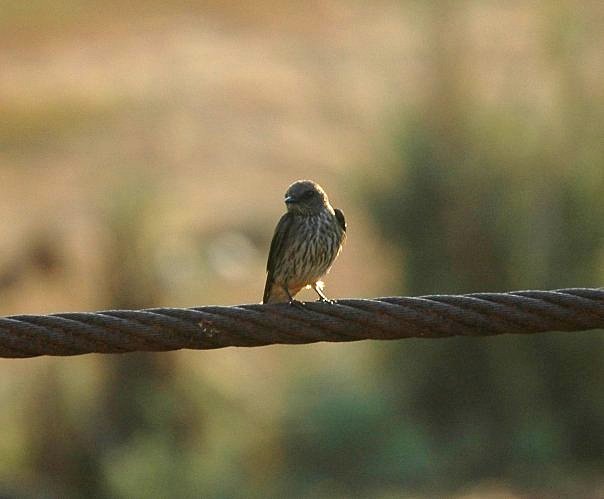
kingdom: Animalia
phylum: Chordata
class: Aves
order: Passeriformes
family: Hirundinidae
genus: Phedina
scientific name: Phedina borbonica
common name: Mascarene martin
